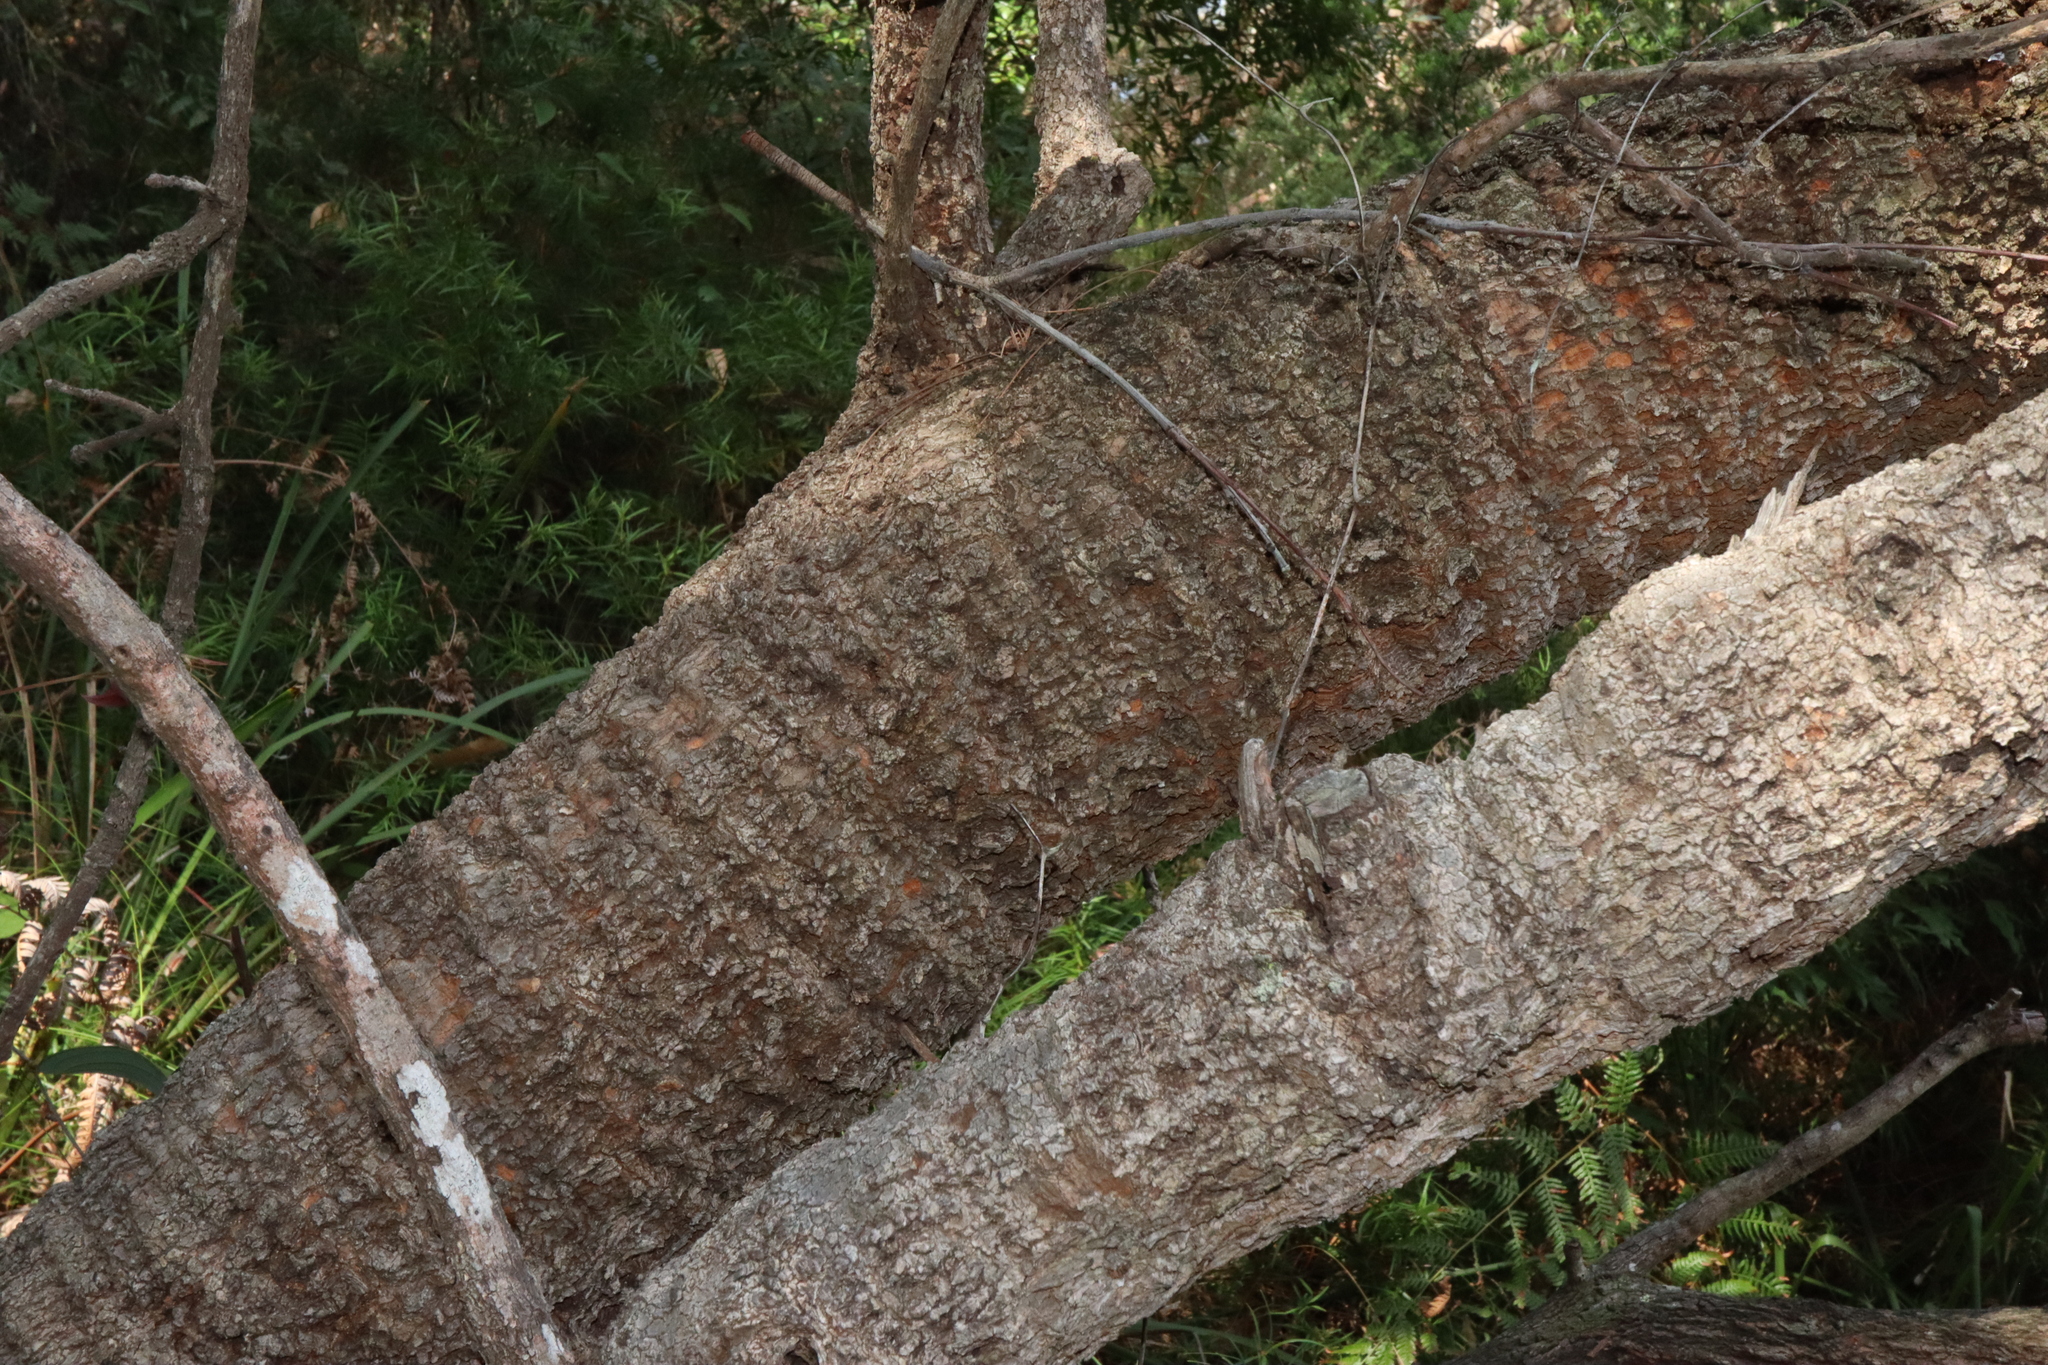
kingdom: Plantae
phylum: Tracheophyta
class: Magnoliopsida
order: Proteales
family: Proteaceae
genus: Banksia
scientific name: Banksia serrata
